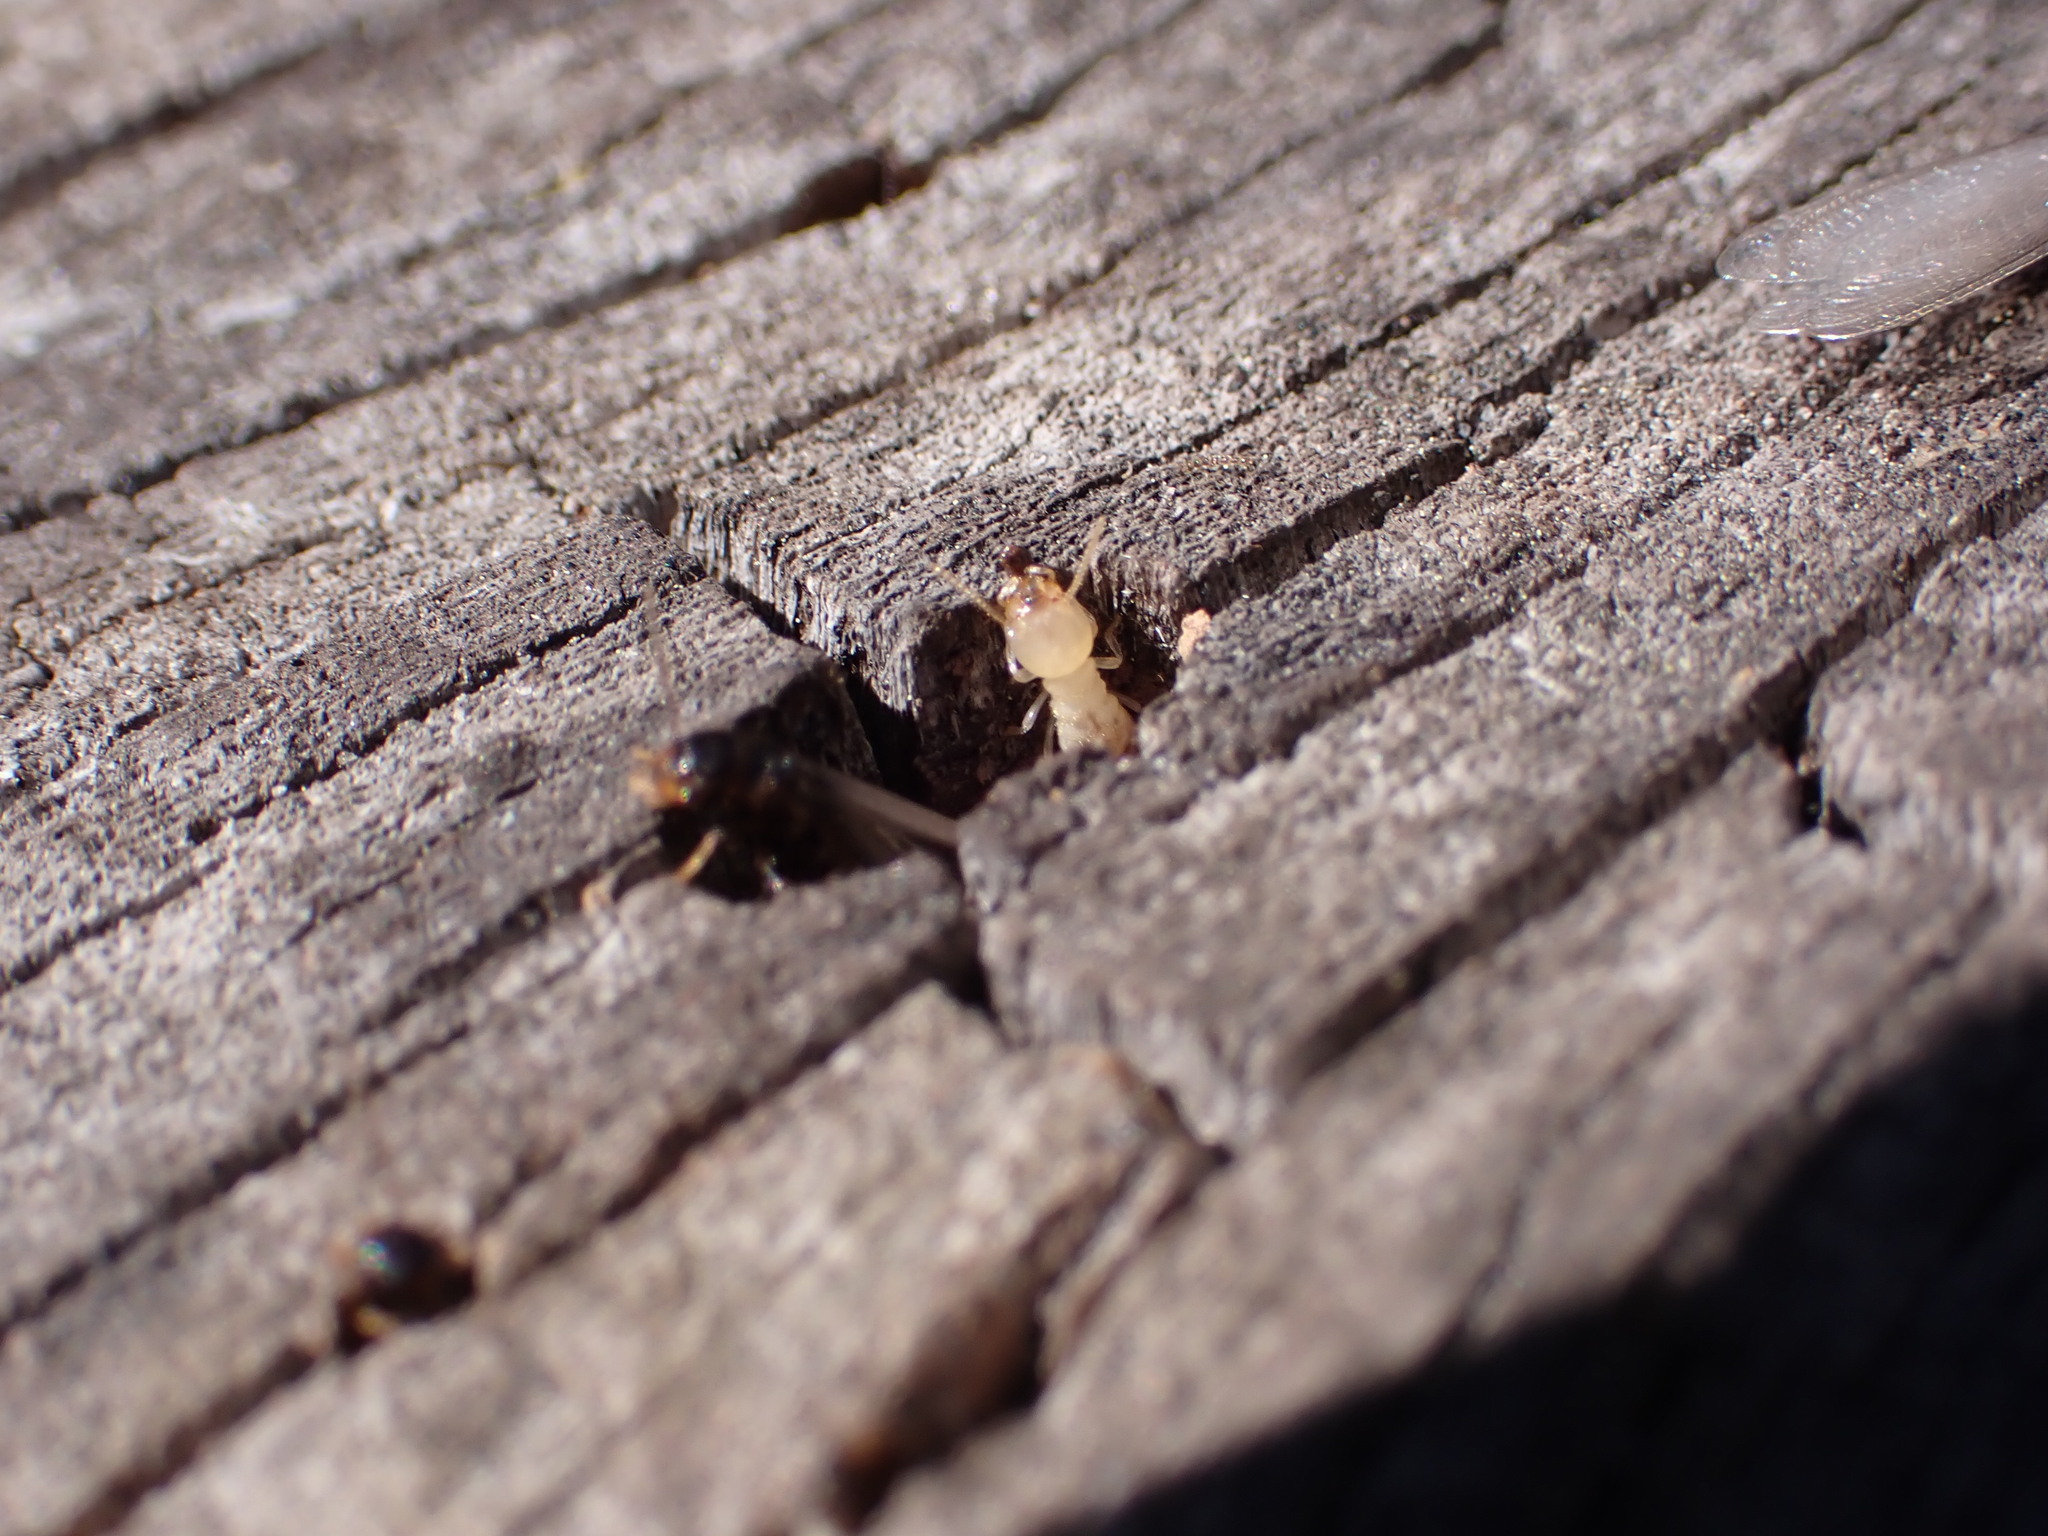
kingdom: Animalia
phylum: Arthropoda
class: Insecta
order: Blattodea
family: Rhinotermitidae
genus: Reticulitermes
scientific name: Reticulitermes flavipes
